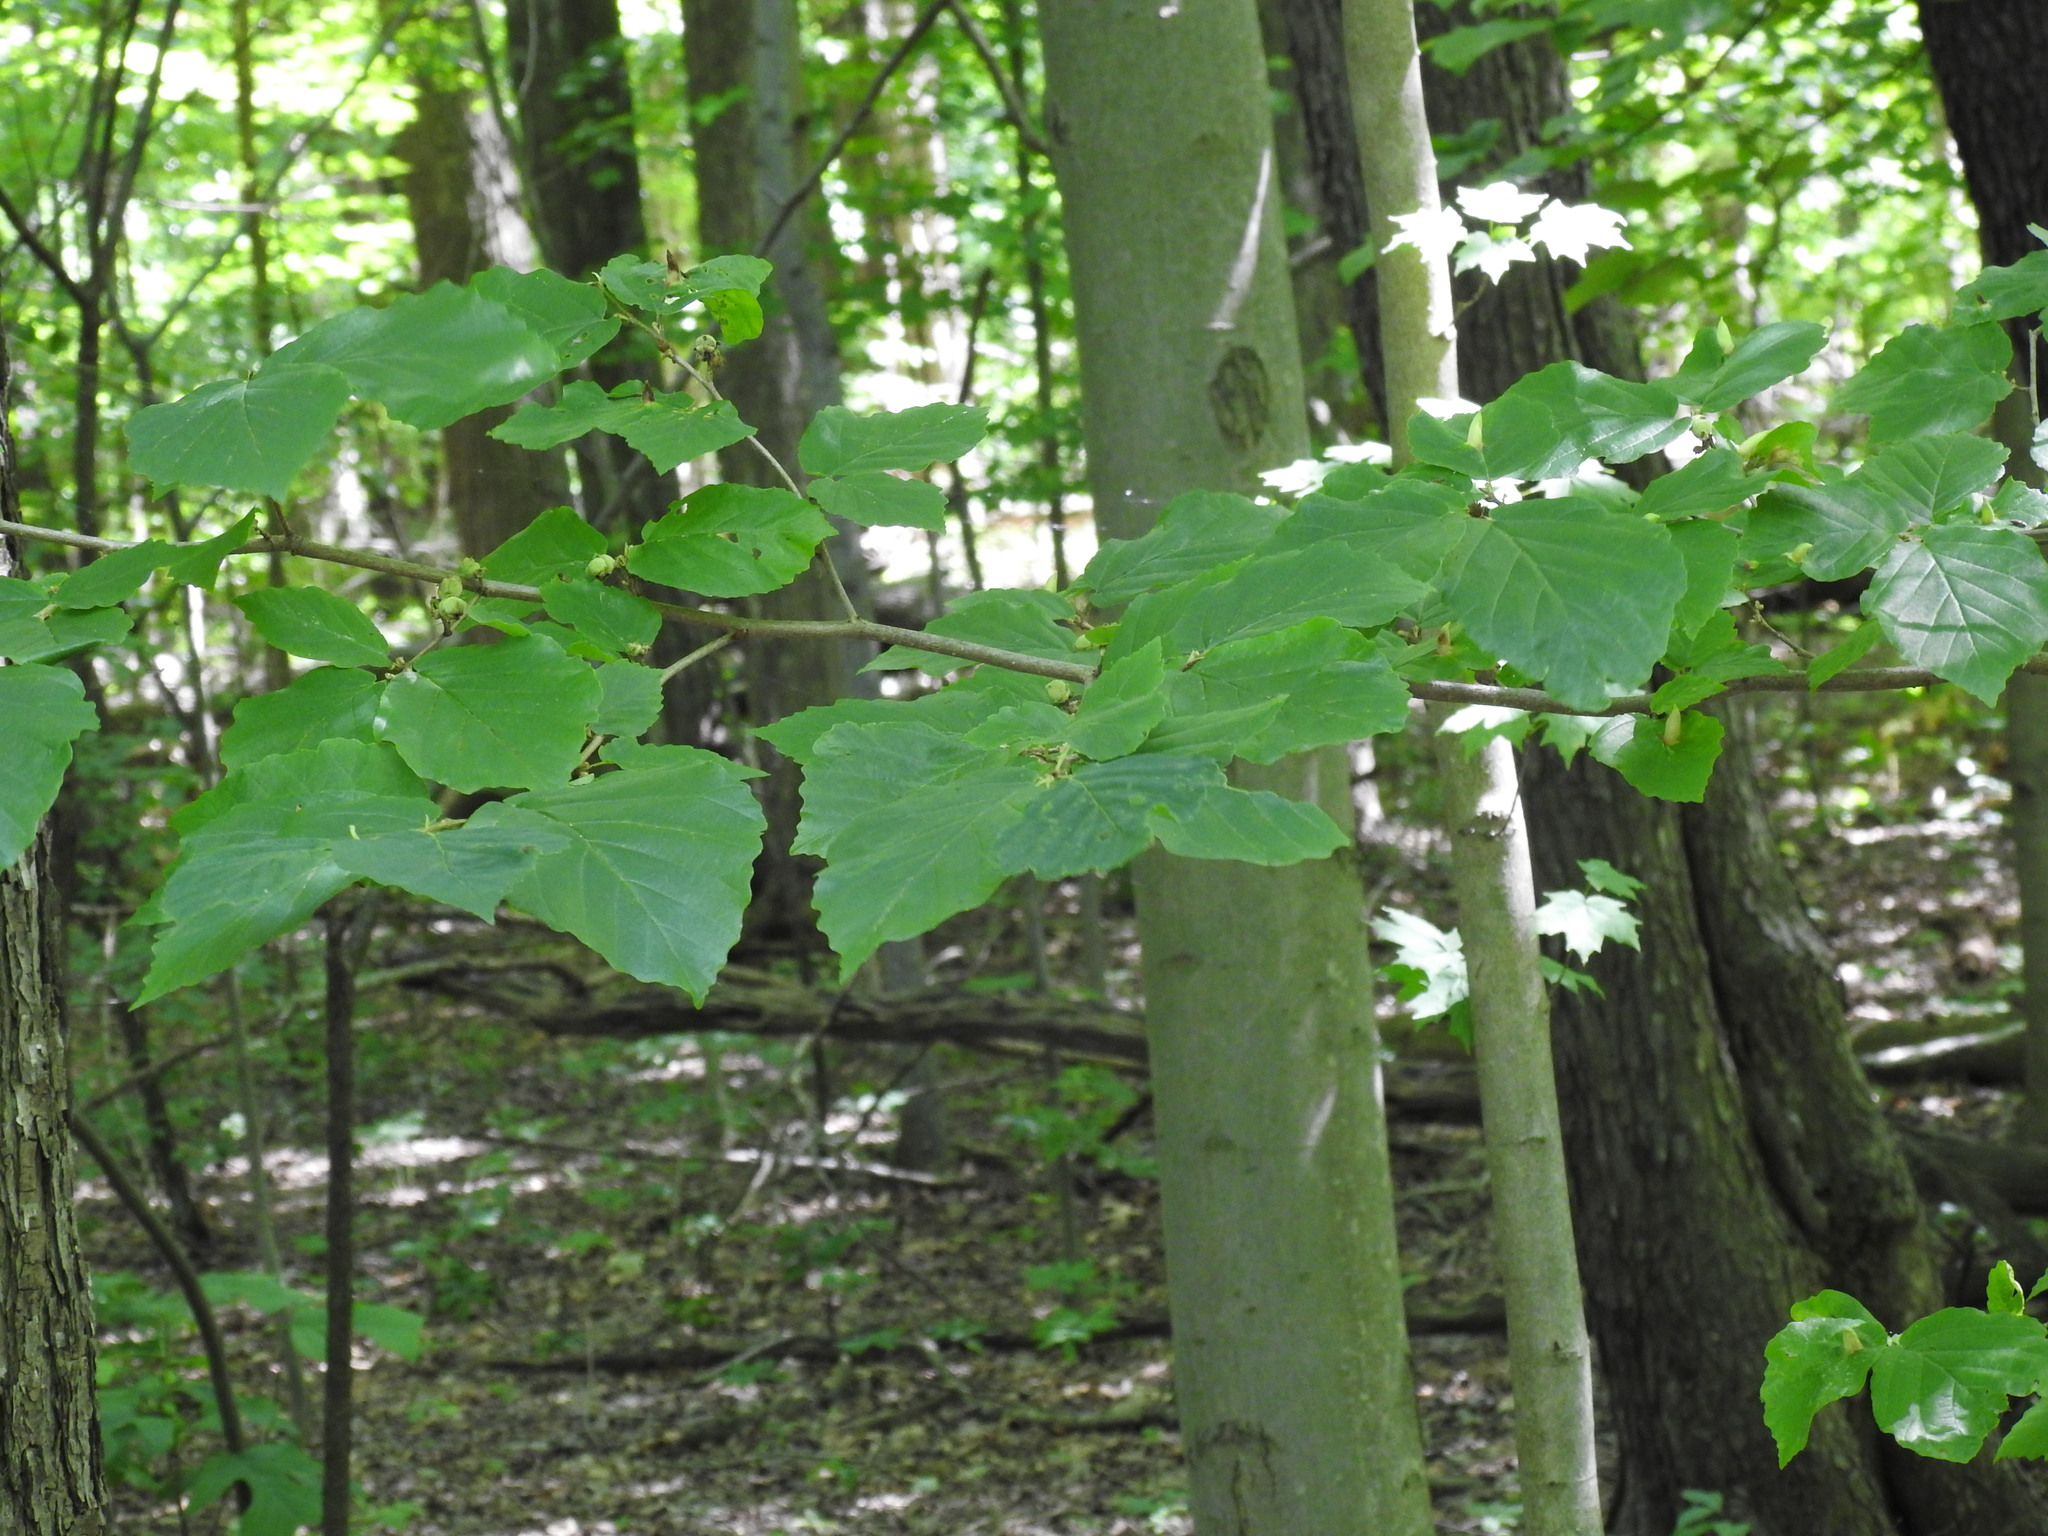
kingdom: Plantae
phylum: Tracheophyta
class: Magnoliopsida
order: Saxifragales
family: Hamamelidaceae
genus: Hamamelis
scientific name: Hamamelis virginiana
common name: Witch-hazel
